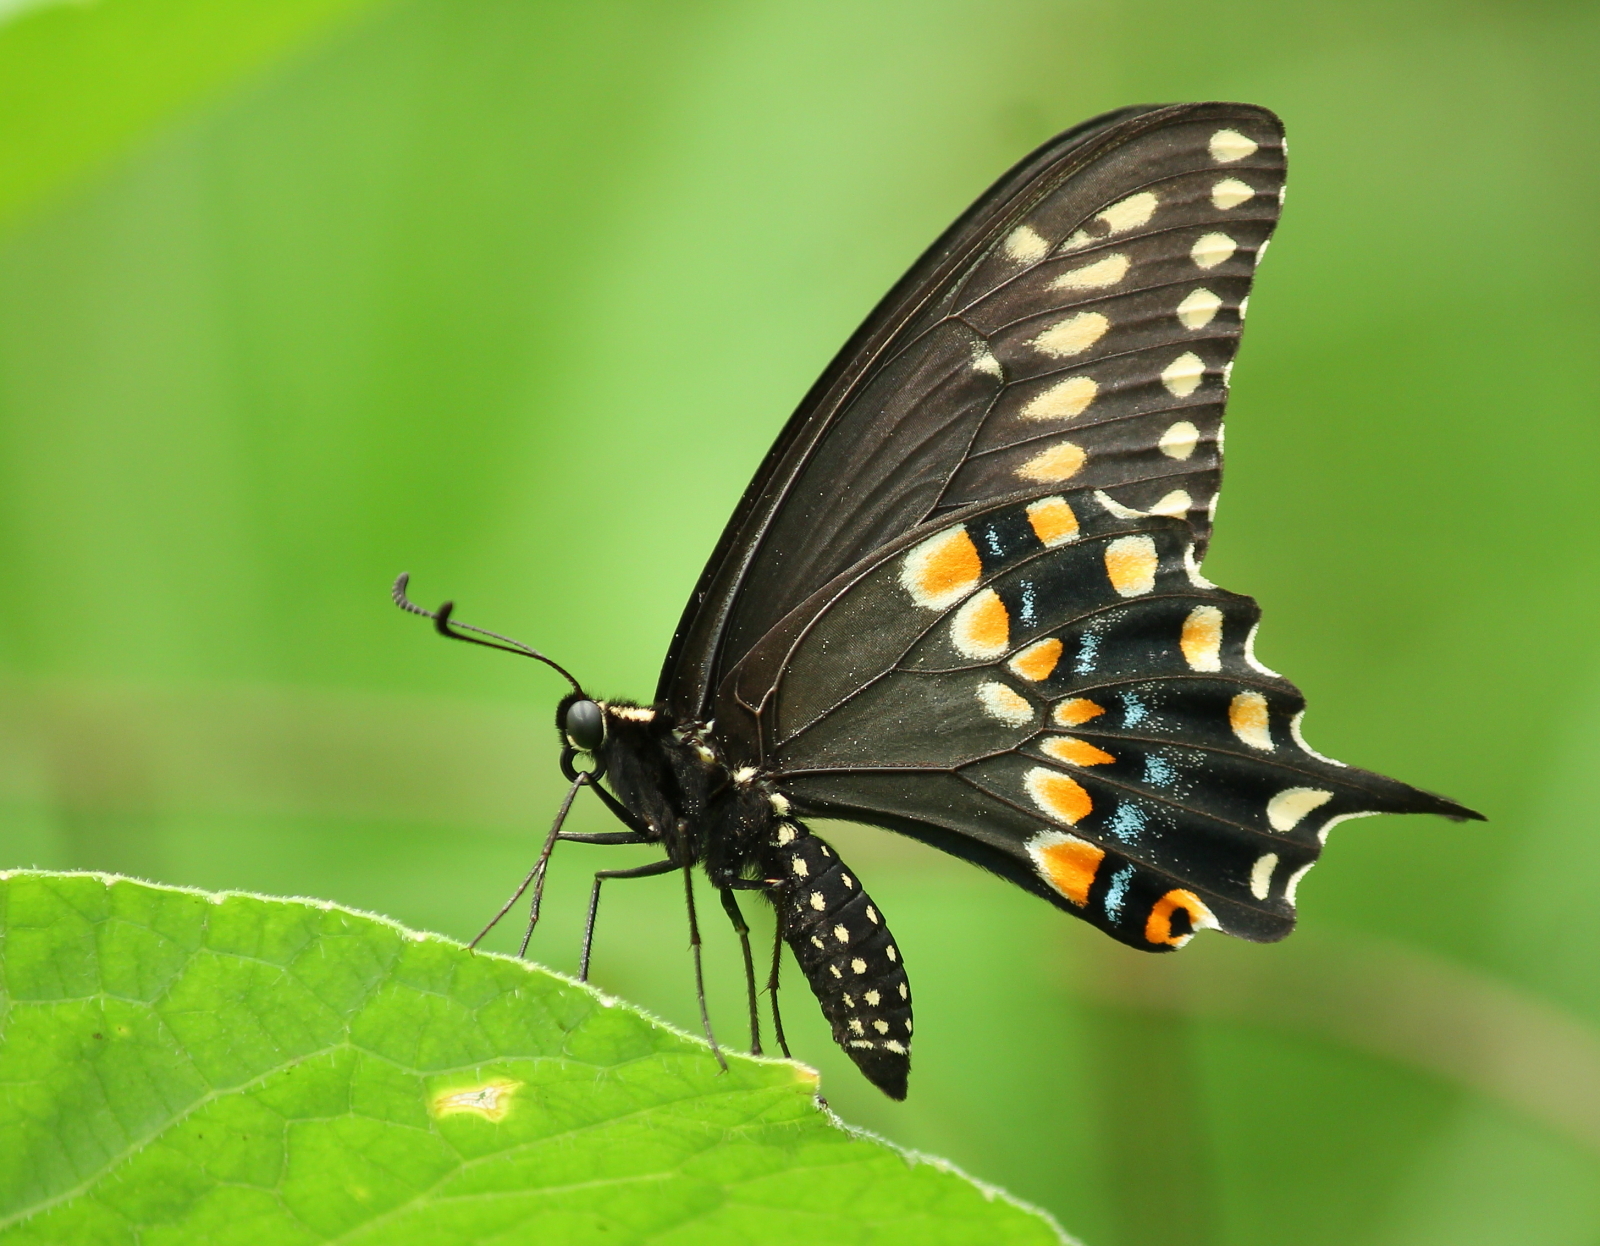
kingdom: Animalia
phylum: Arthropoda
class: Insecta
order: Lepidoptera
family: Papilionidae
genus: Papilio
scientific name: Papilio polyxenes
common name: Black swallowtail
